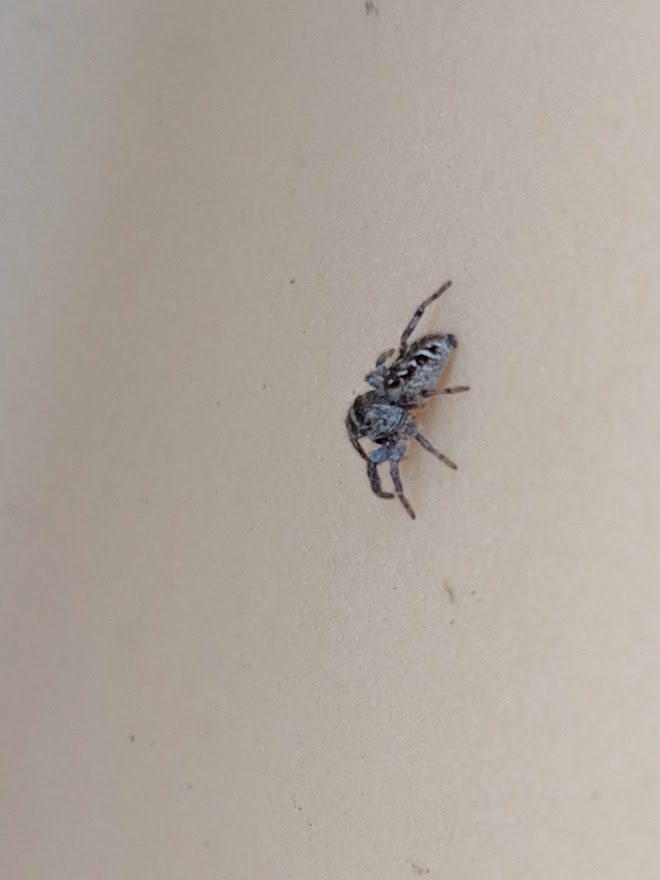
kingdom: Animalia
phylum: Arthropoda
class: Arachnida
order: Araneae
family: Salticidae
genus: Eris
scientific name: Eris militaris
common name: Bronze jumper
